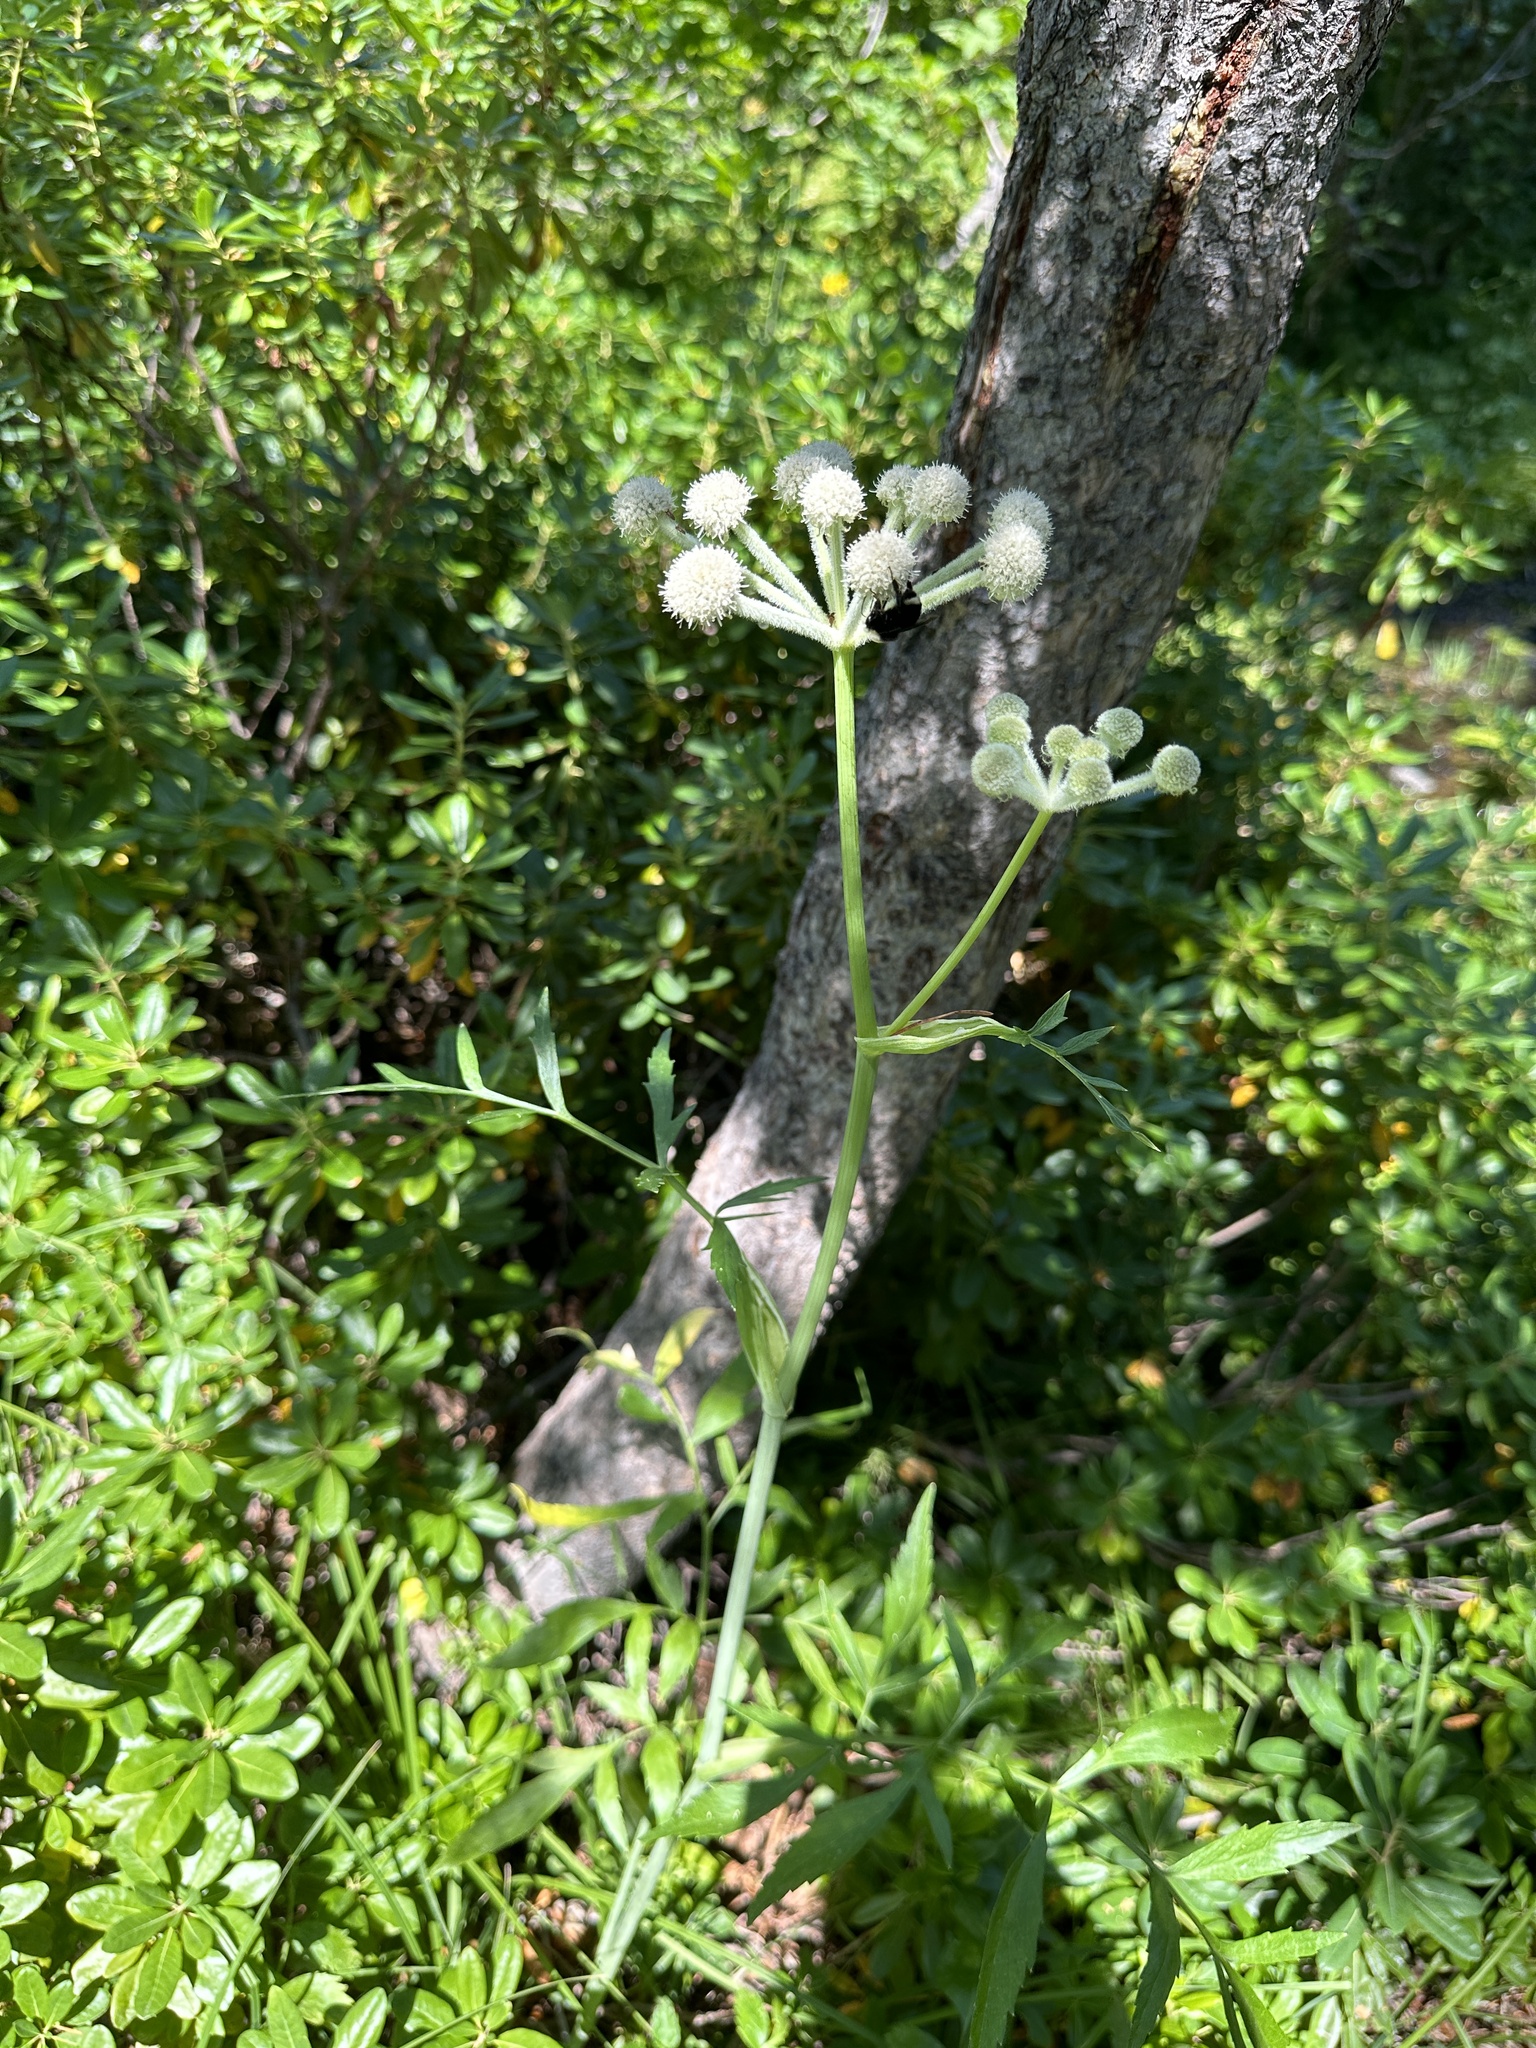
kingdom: Plantae
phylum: Tracheophyta
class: Magnoliopsida
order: Apiales
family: Apiaceae
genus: Angelica
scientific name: Angelica capitellata
